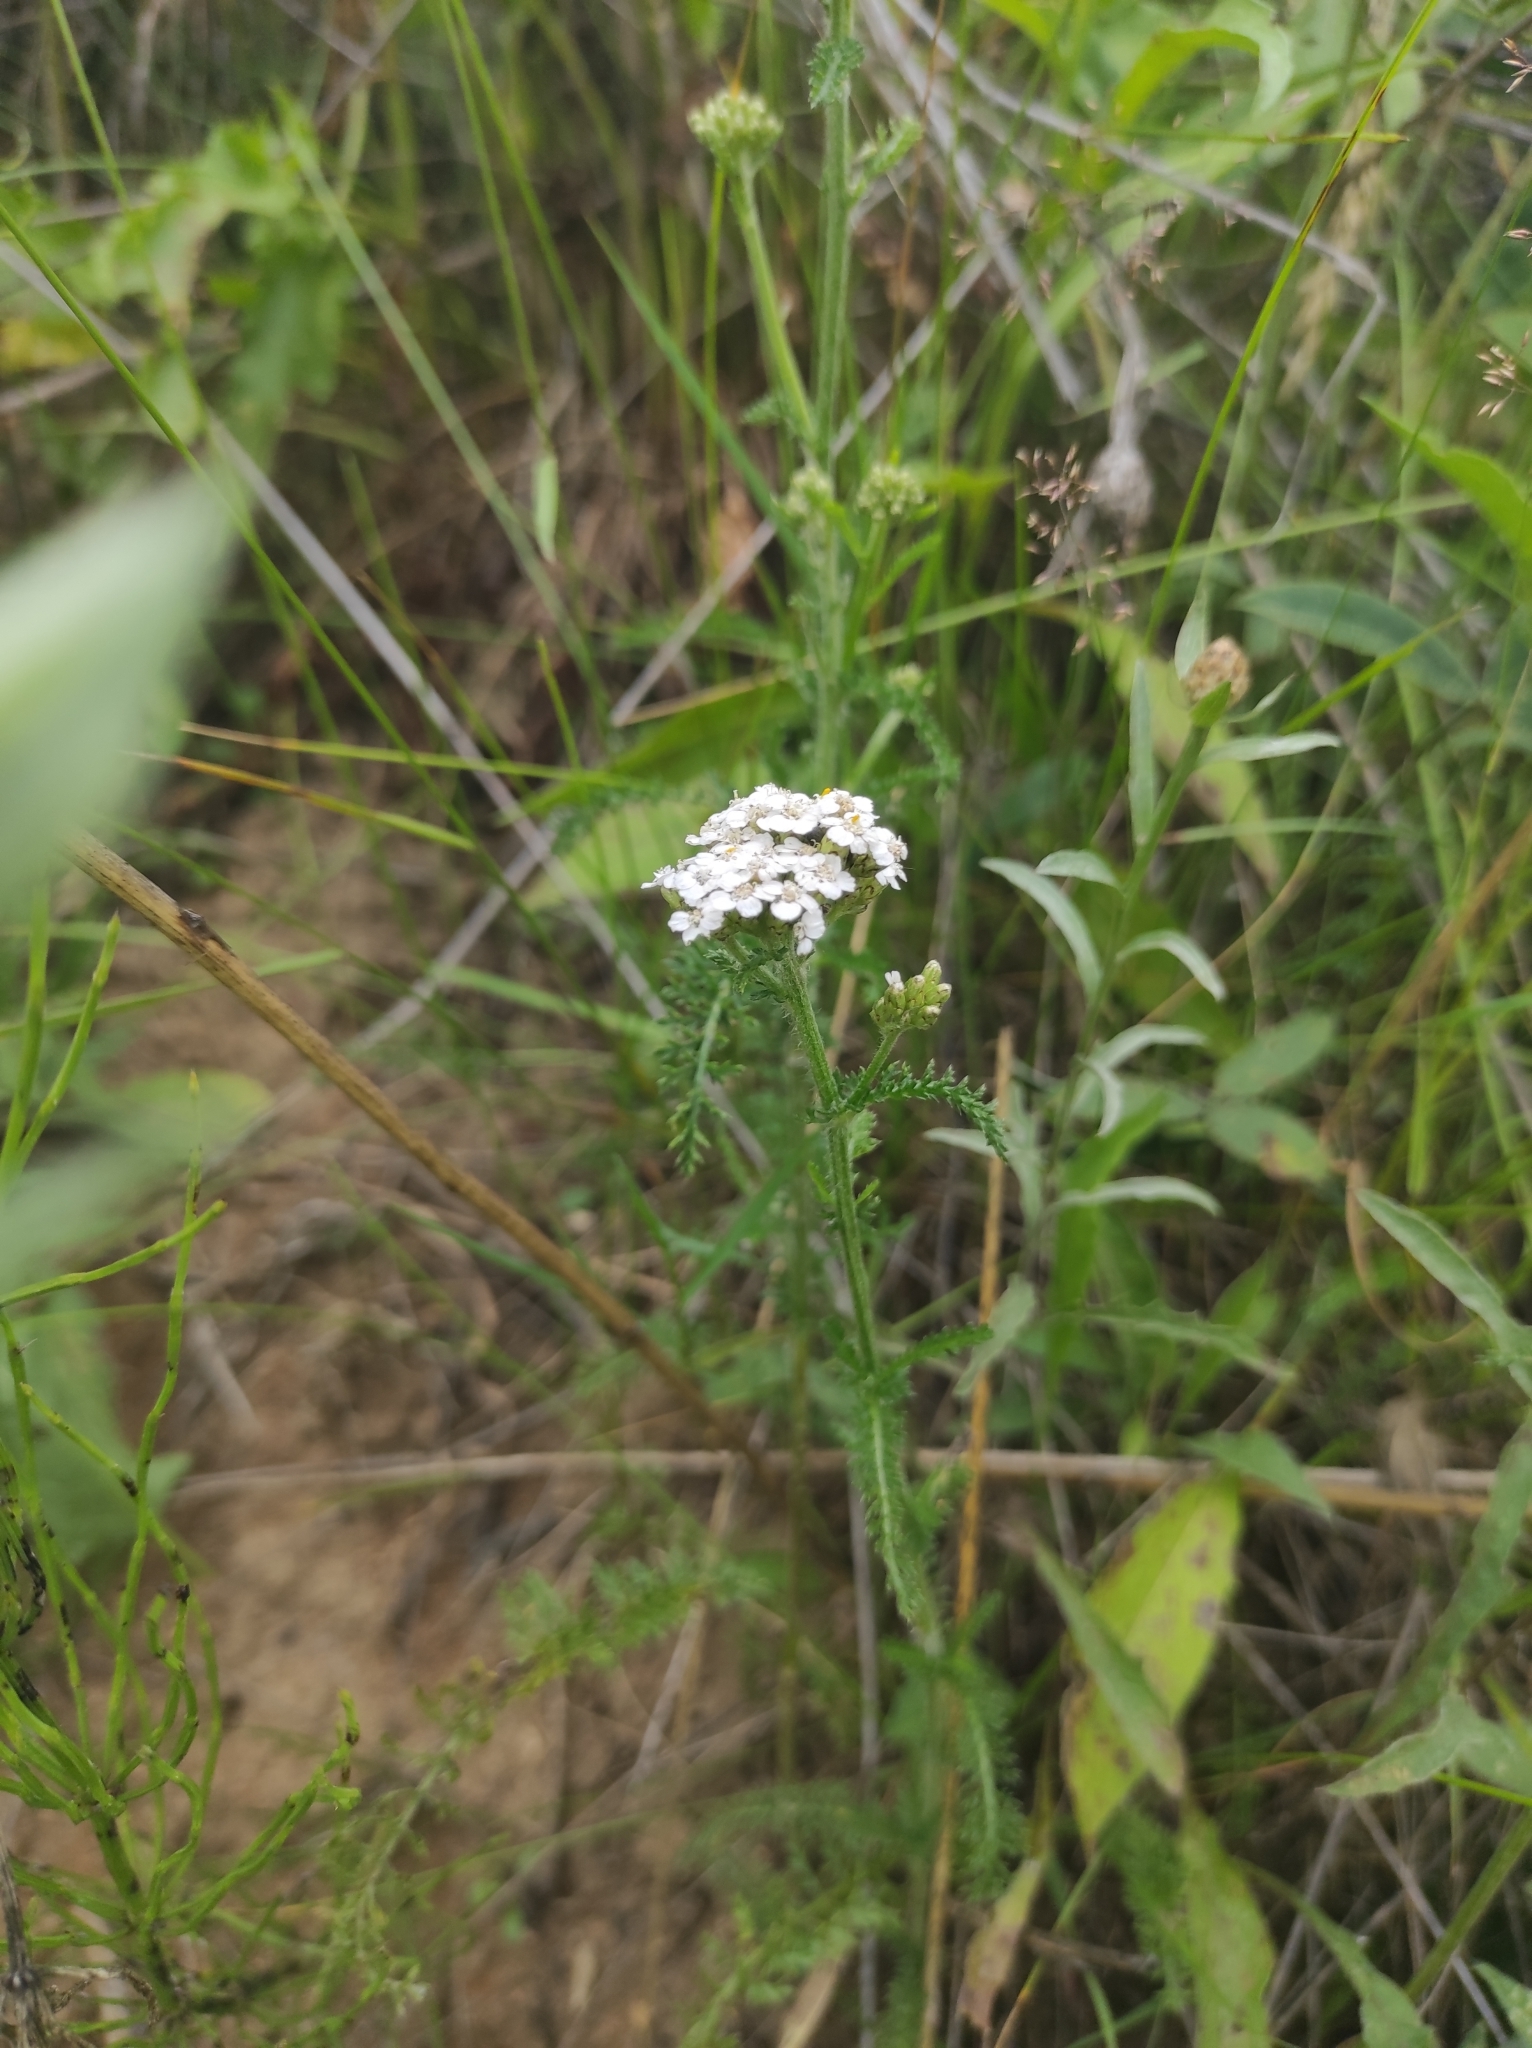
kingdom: Plantae
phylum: Tracheophyta
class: Magnoliopsida
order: Asterales
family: Asteraceae
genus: Achillea
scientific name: Achillea millefolium
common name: Yarrow
